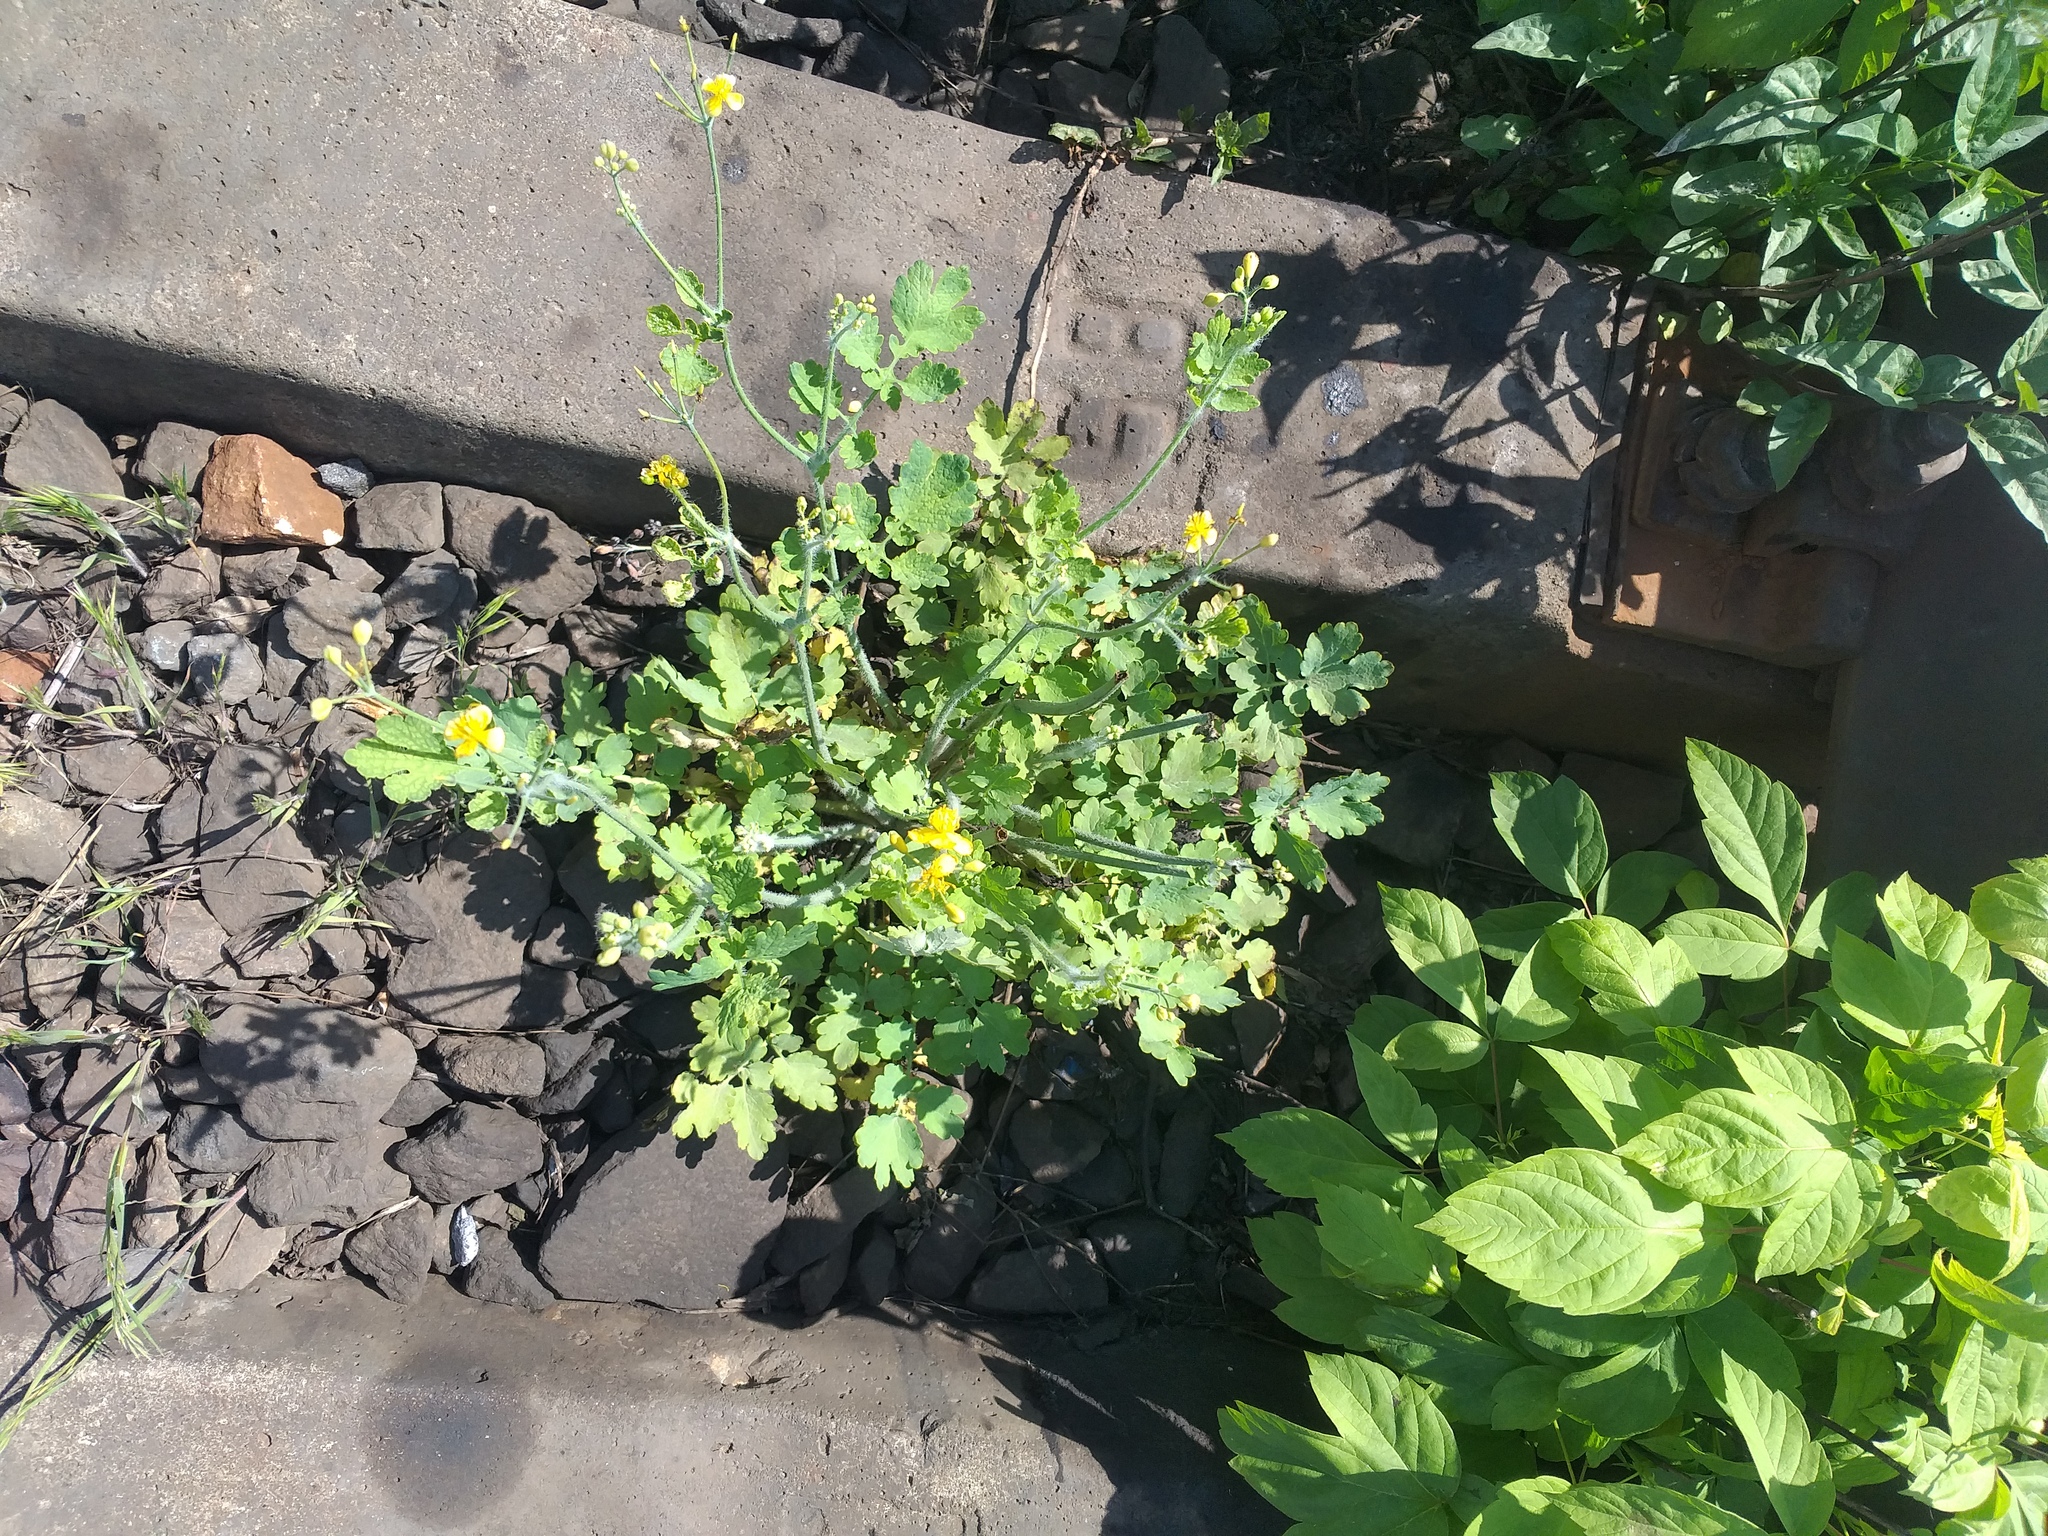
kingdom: Plantae
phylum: Tracheophyta
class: Magnoliopsida
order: Ranunculales
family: Papaveraceae
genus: Chelidonium
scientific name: Chelidonium majus
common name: Greater celandine
